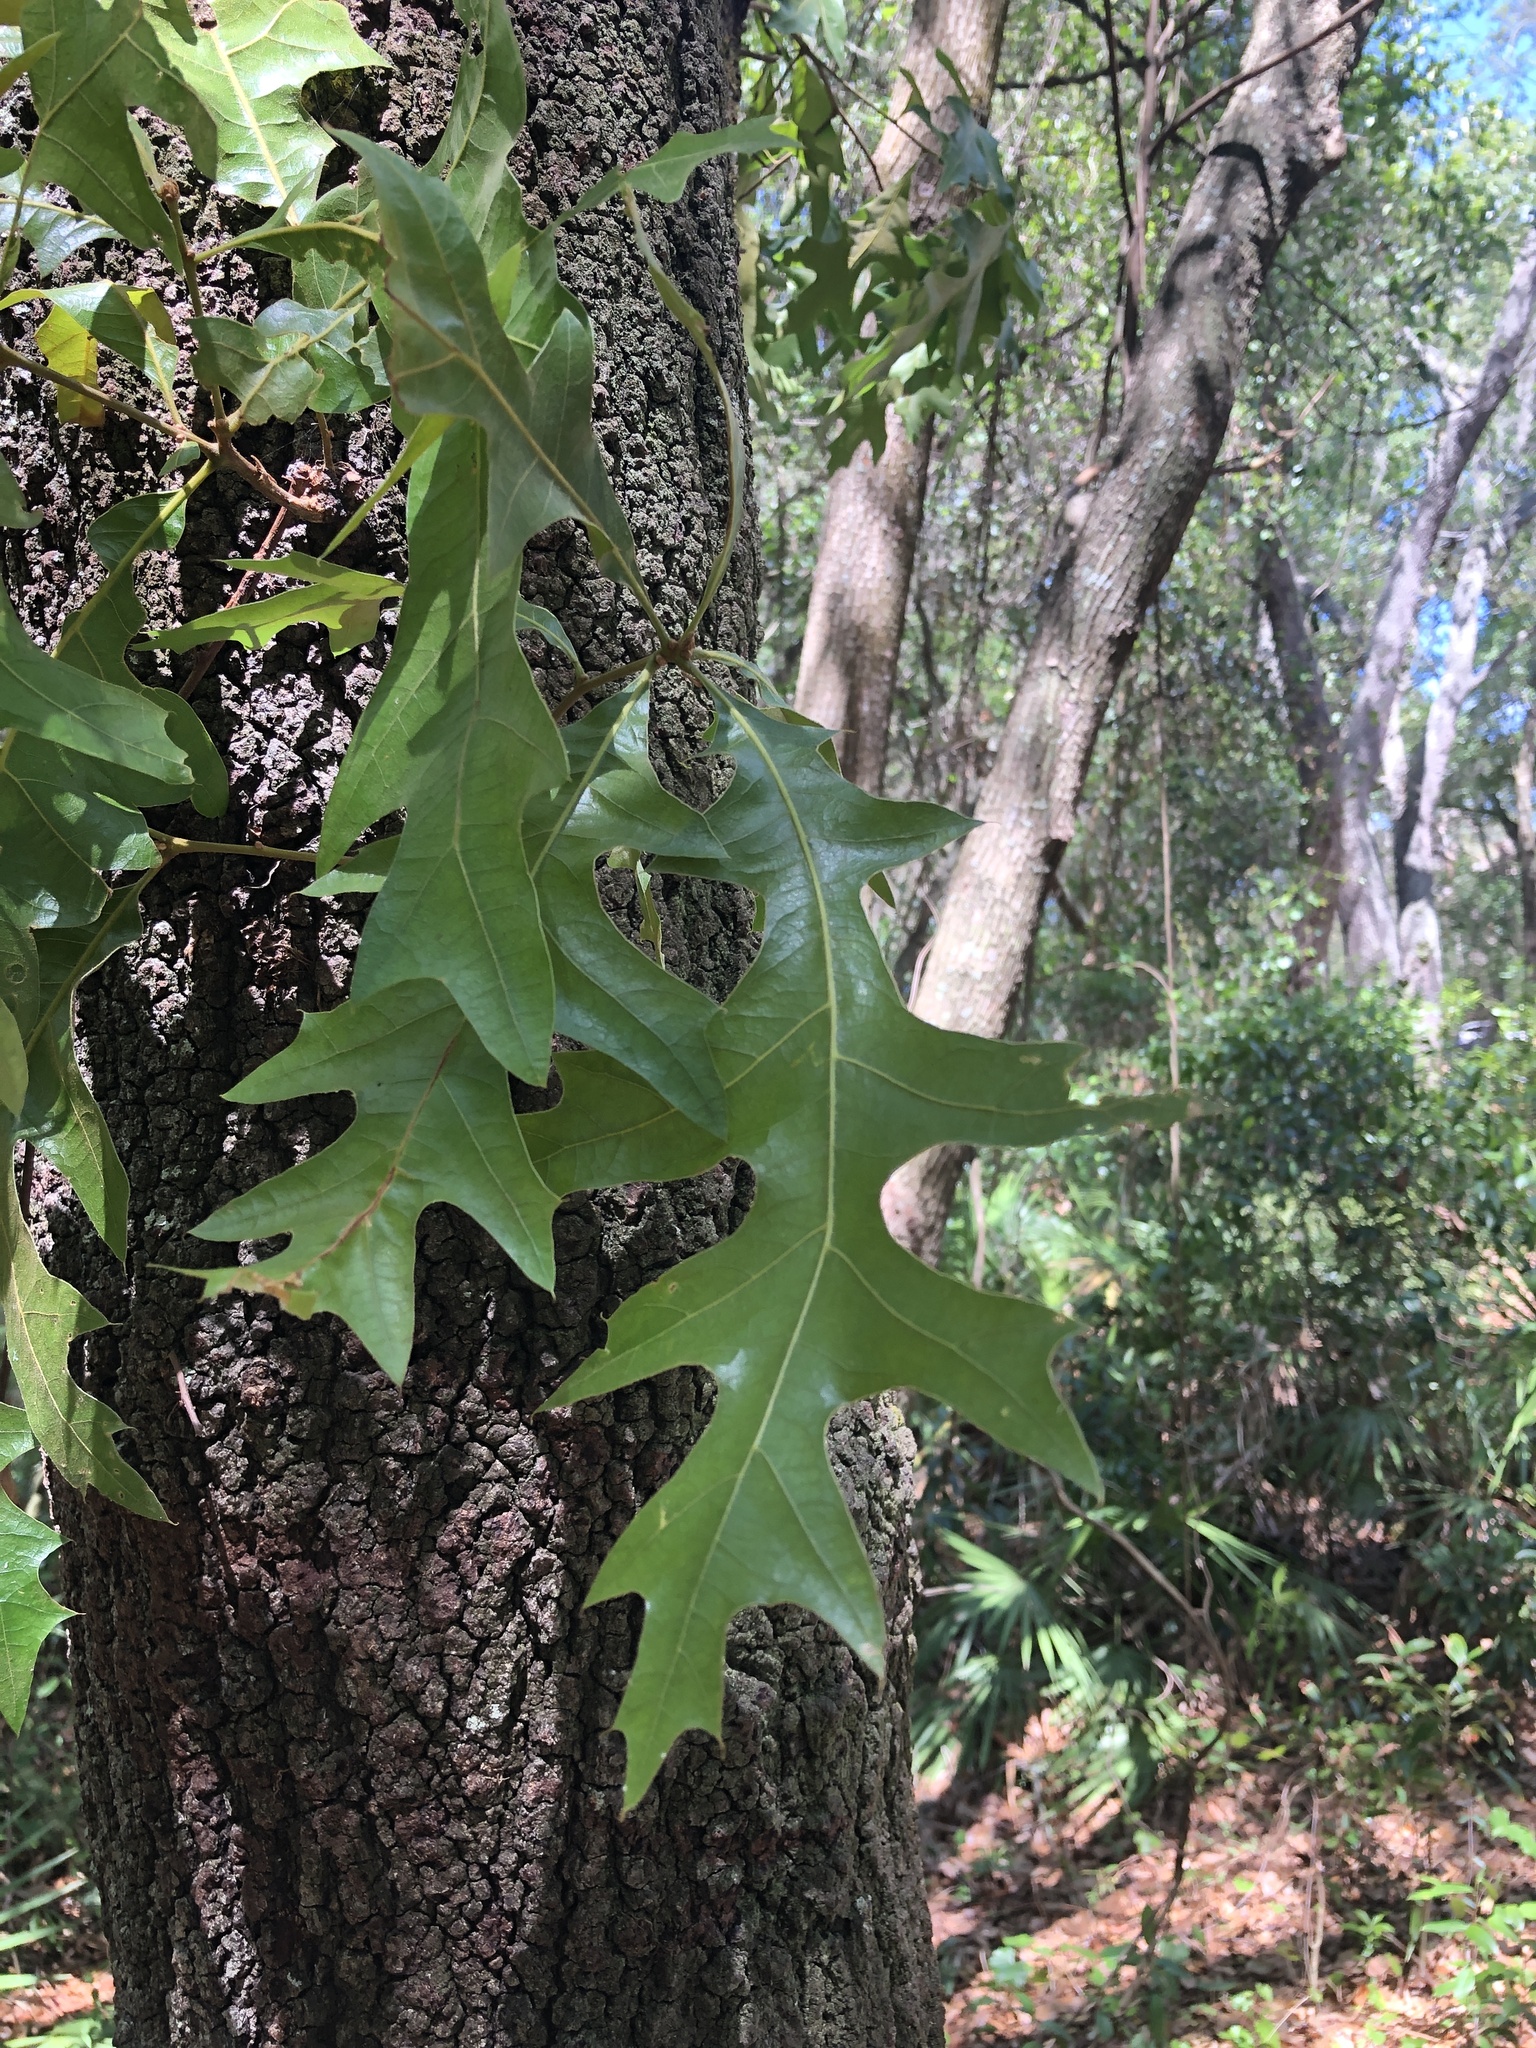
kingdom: Plantae
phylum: Tracheophyta
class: Magnoliopsida
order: Fagales
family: Fagaceae
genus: Quercus
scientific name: Quercus laevis
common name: Turkey oak
